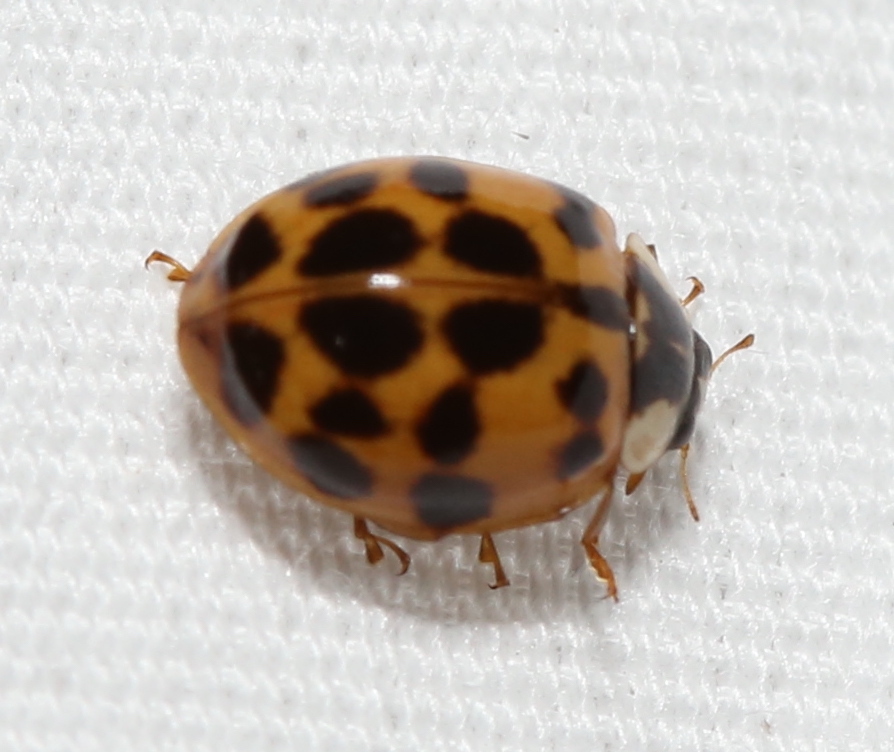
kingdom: Animalia
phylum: Arthropoda
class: Insecta
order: Coleoptera
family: Coccinellidae
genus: Harmonia
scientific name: Harmonia axyridis
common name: Harlequin ladybird
